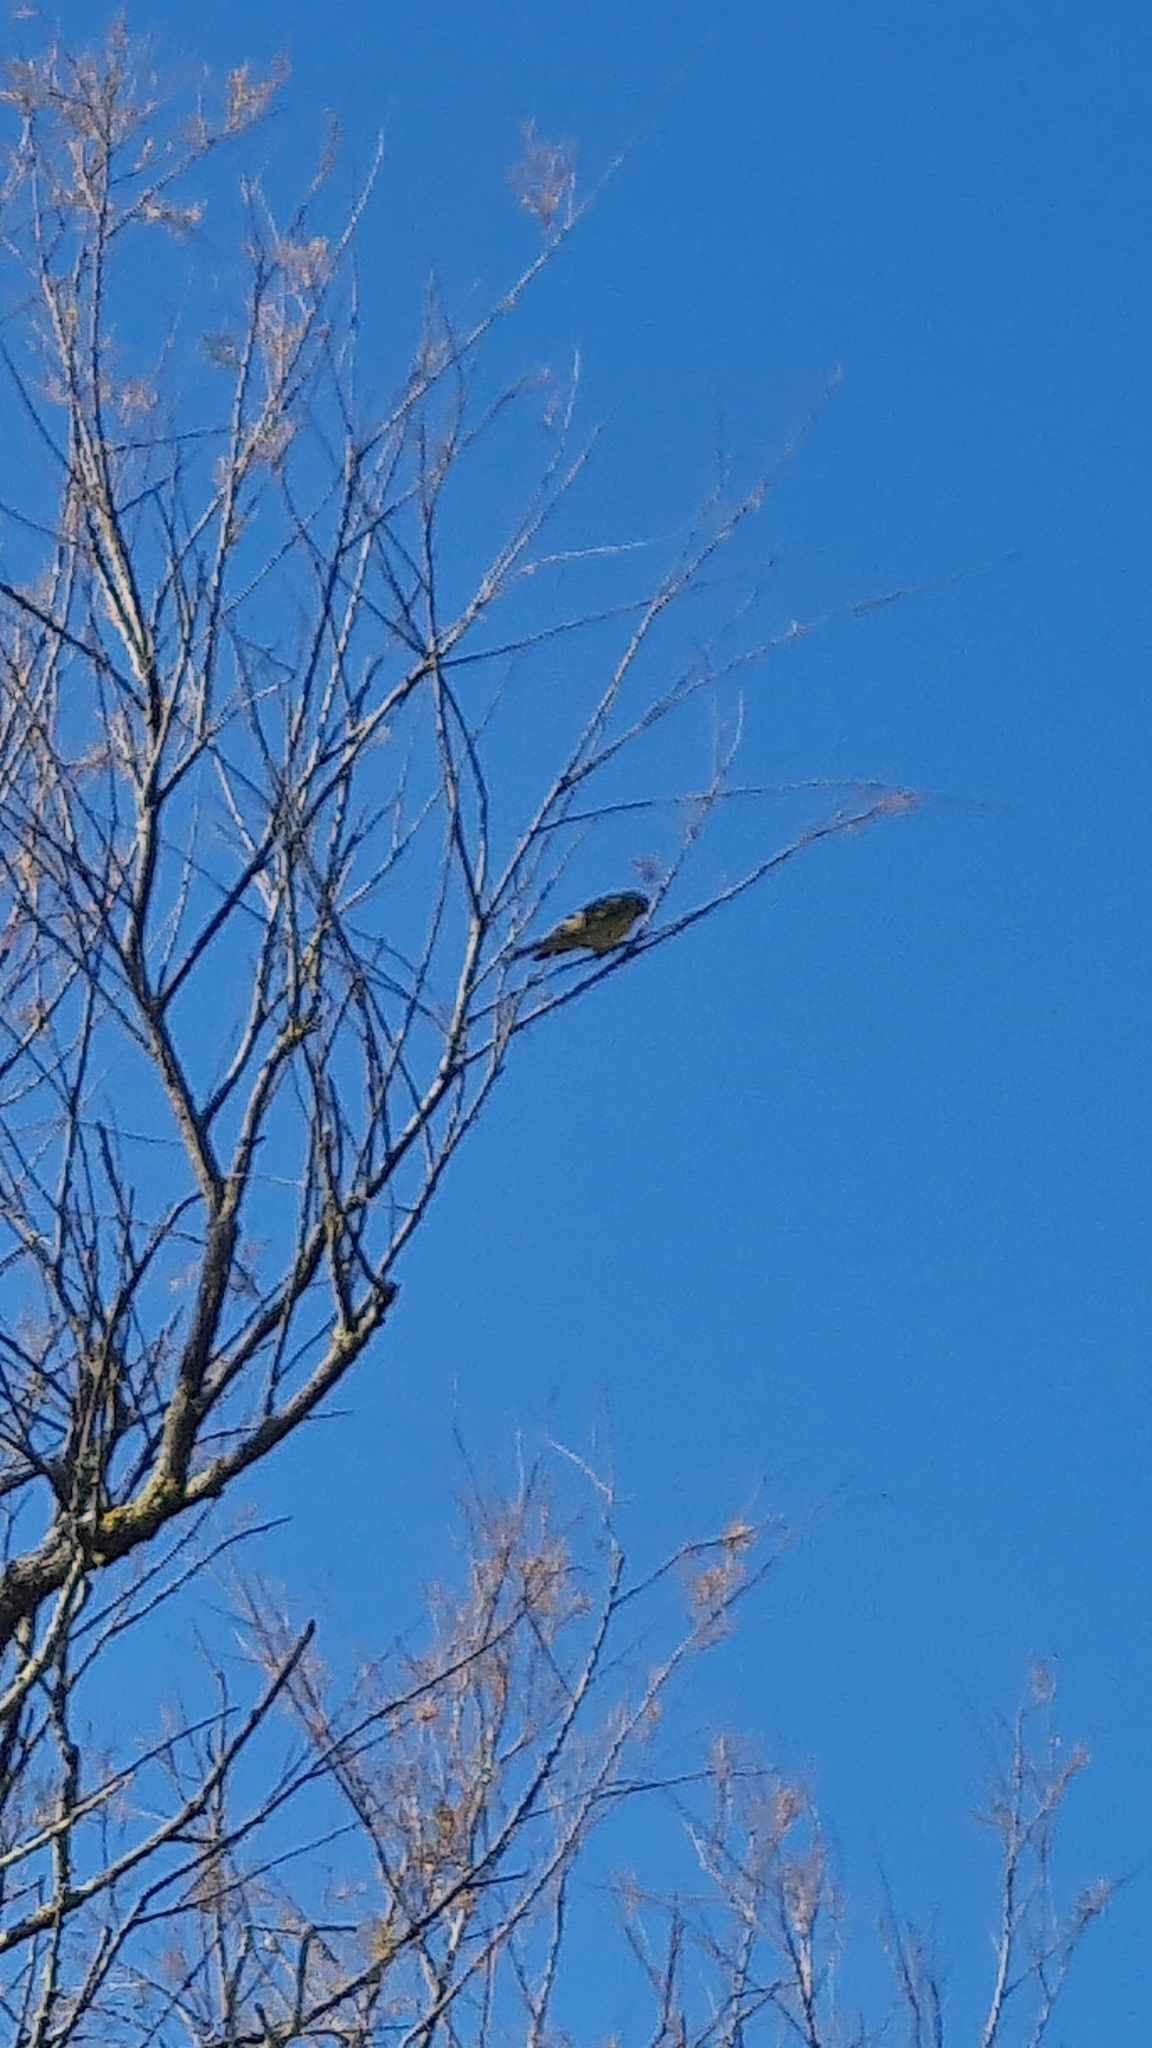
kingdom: Animalia
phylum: Chordata
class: Aves
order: Passeriformes
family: Fringillidae
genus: Serinus
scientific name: Serinus serinus
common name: European serin
